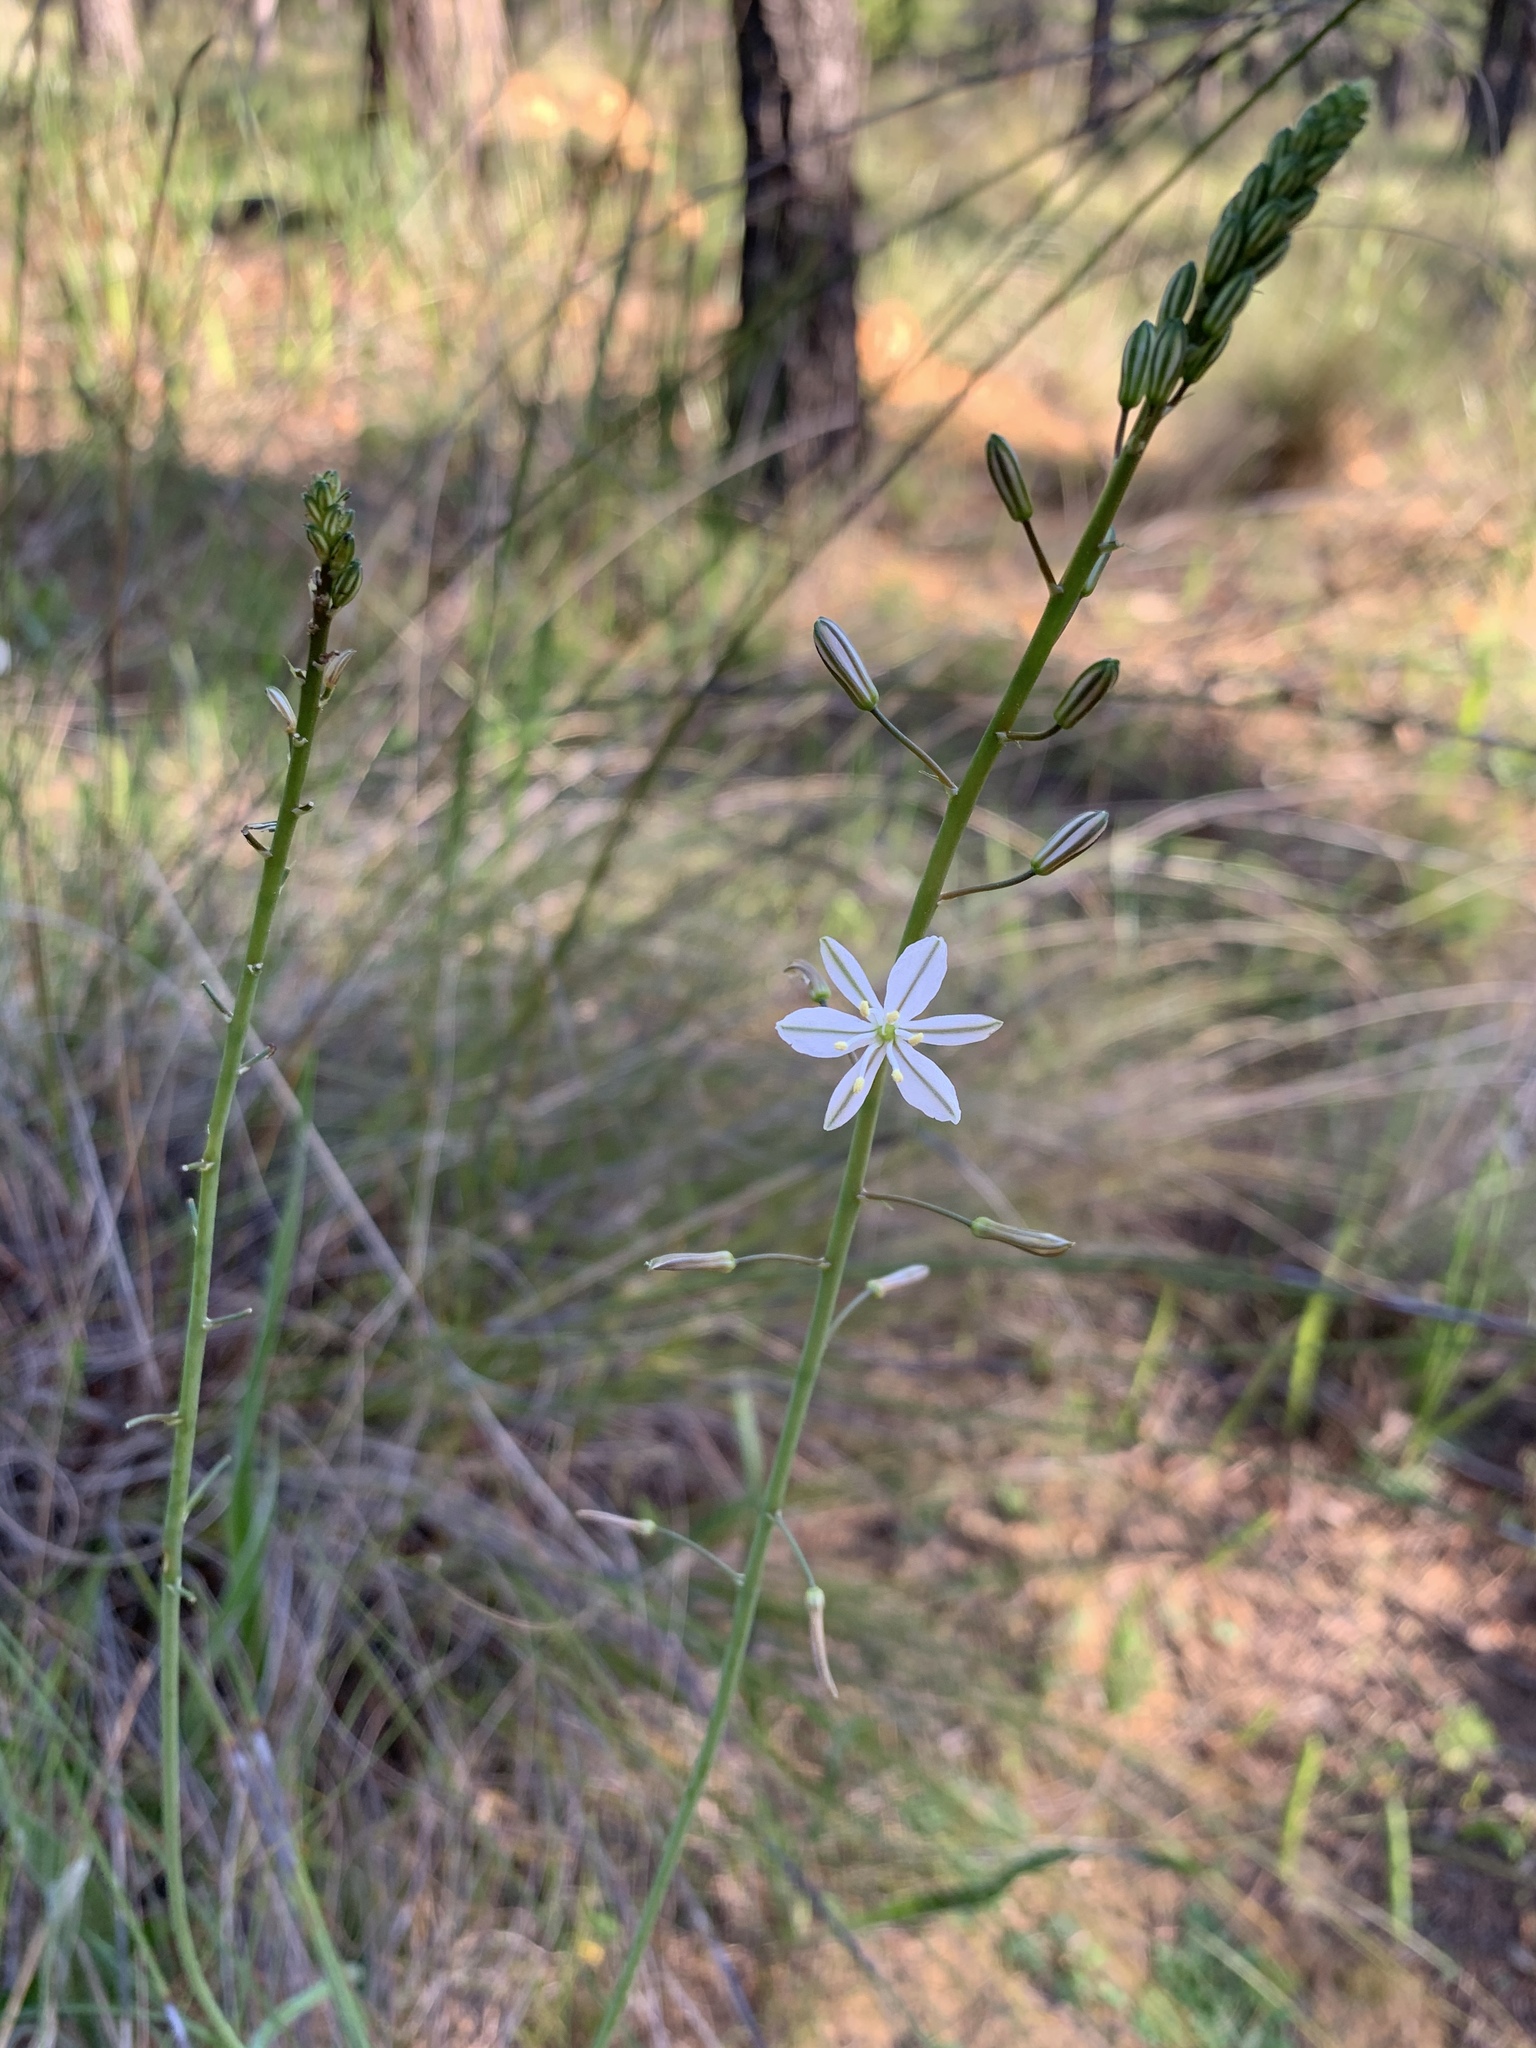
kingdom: Plantae
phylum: Tracheophyta
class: Liliopsida
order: Asparagales
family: Asphodelaceae
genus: Trachyandra
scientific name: Trachyandra divaricata
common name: Dune onionweed
